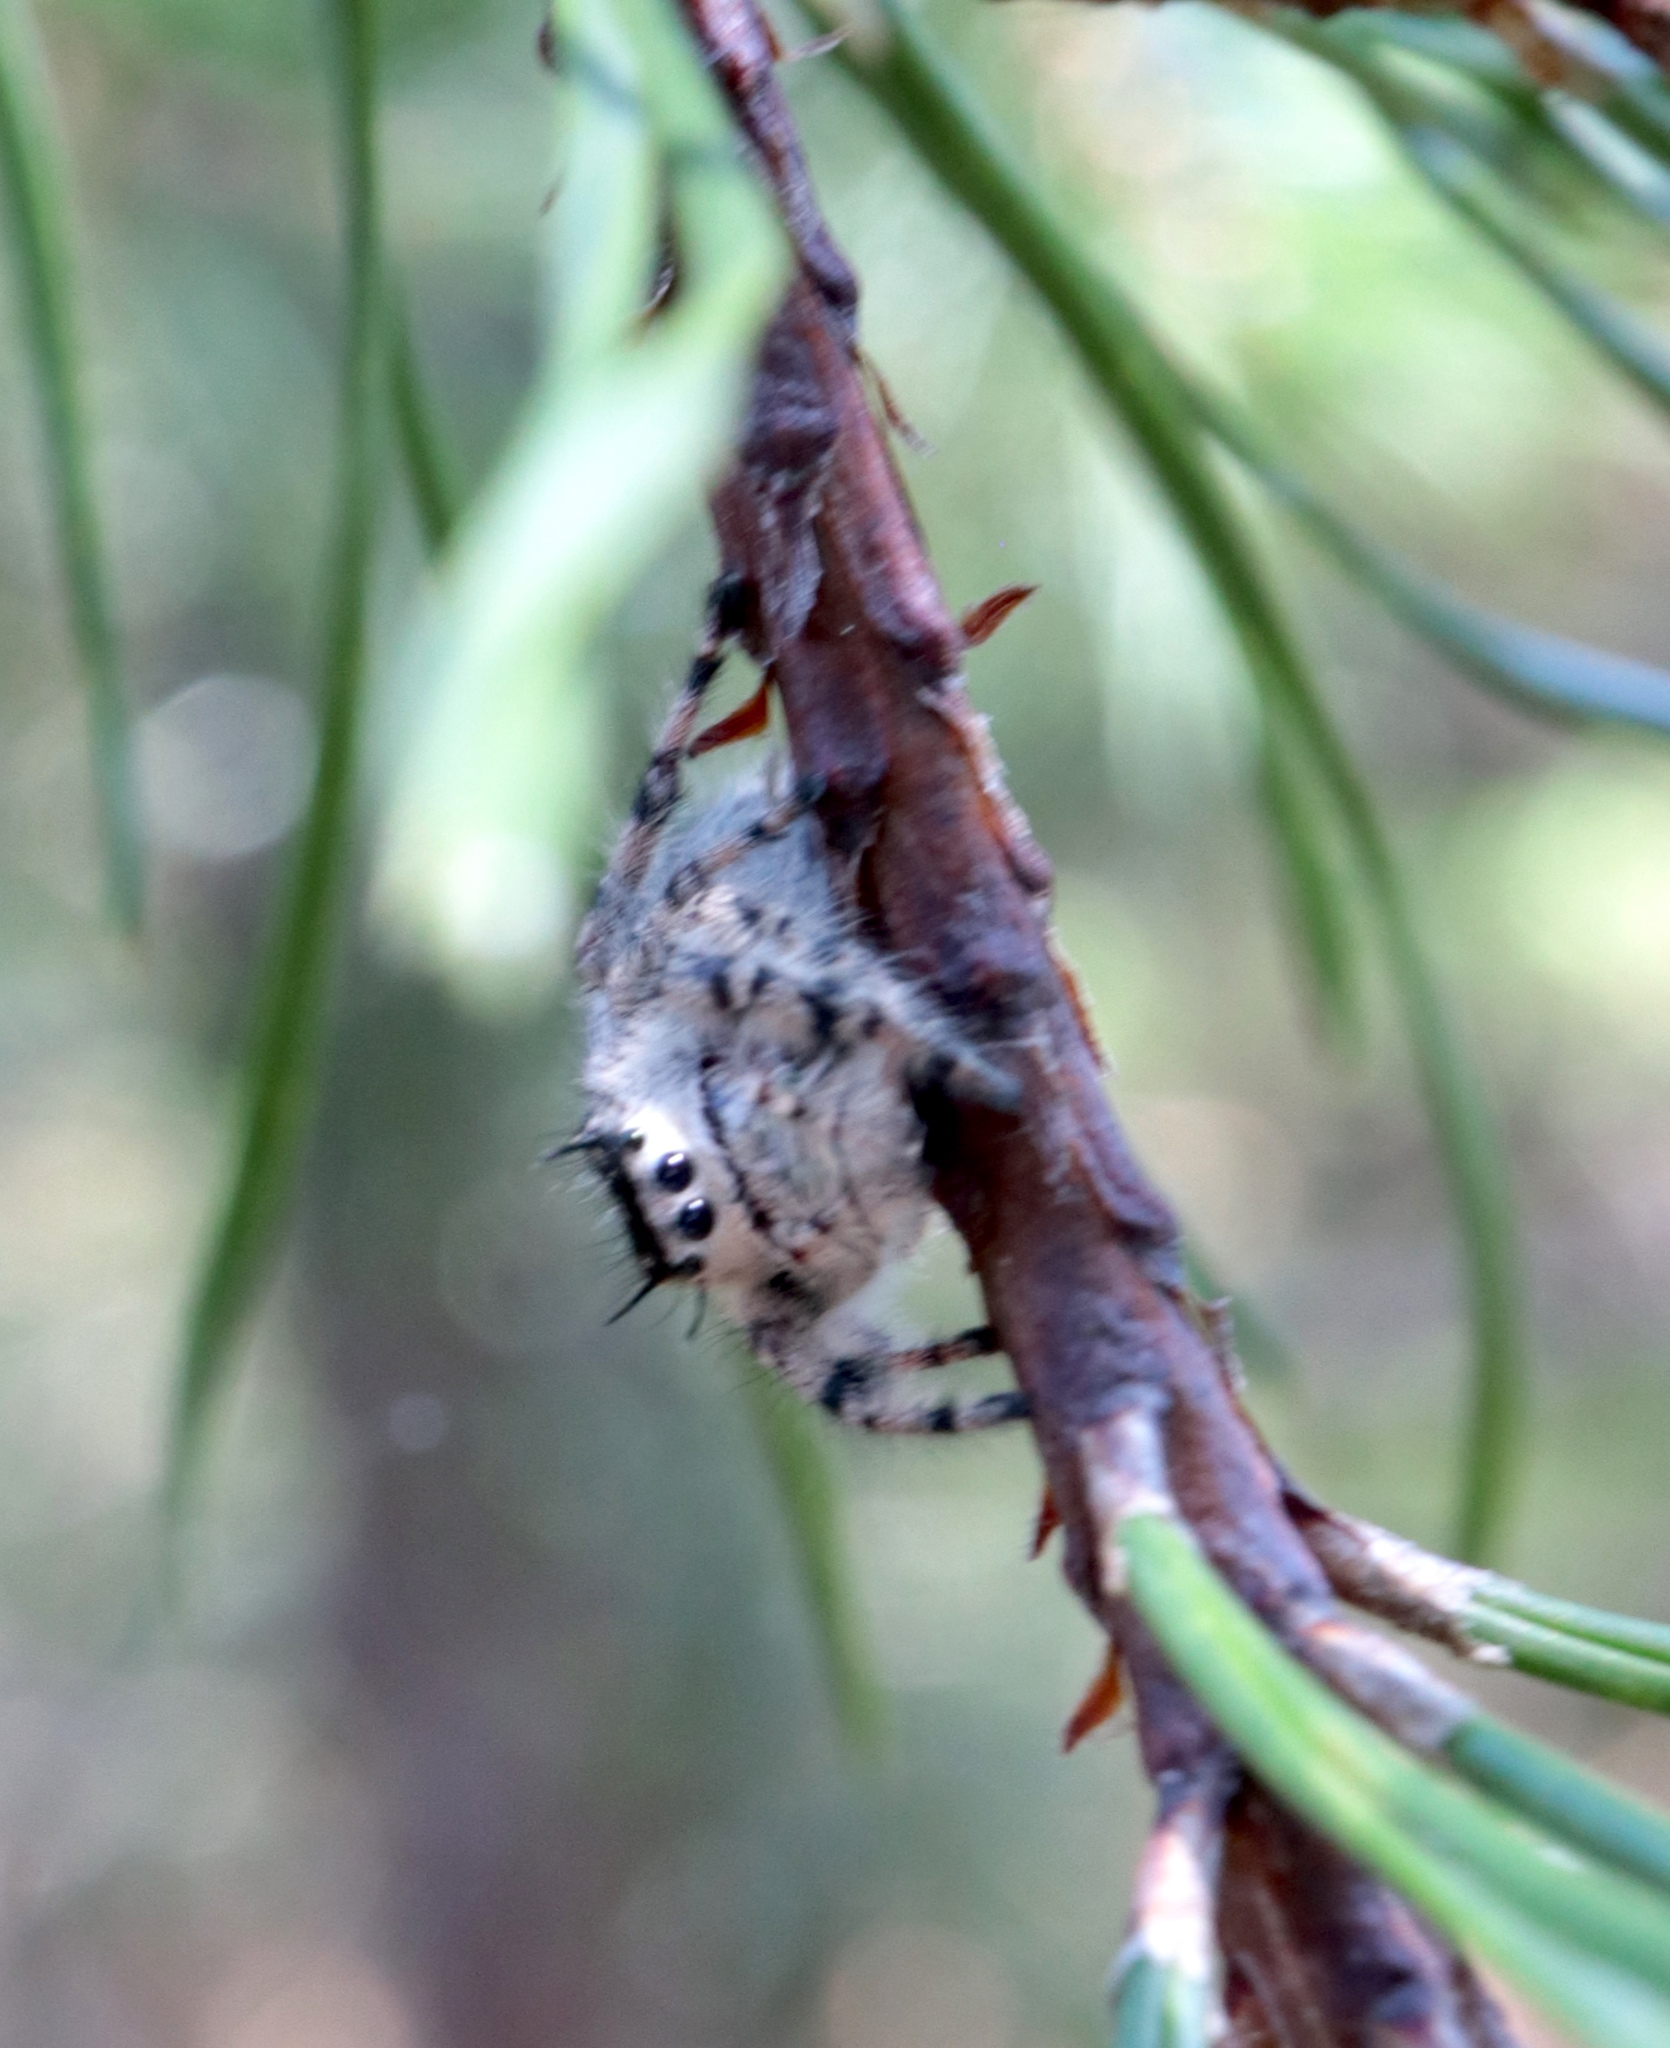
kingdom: Animalia
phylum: Arthropoda
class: Arachnida
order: Araneae
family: Salticidae
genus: Phidippus
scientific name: Phidippus otiosus
